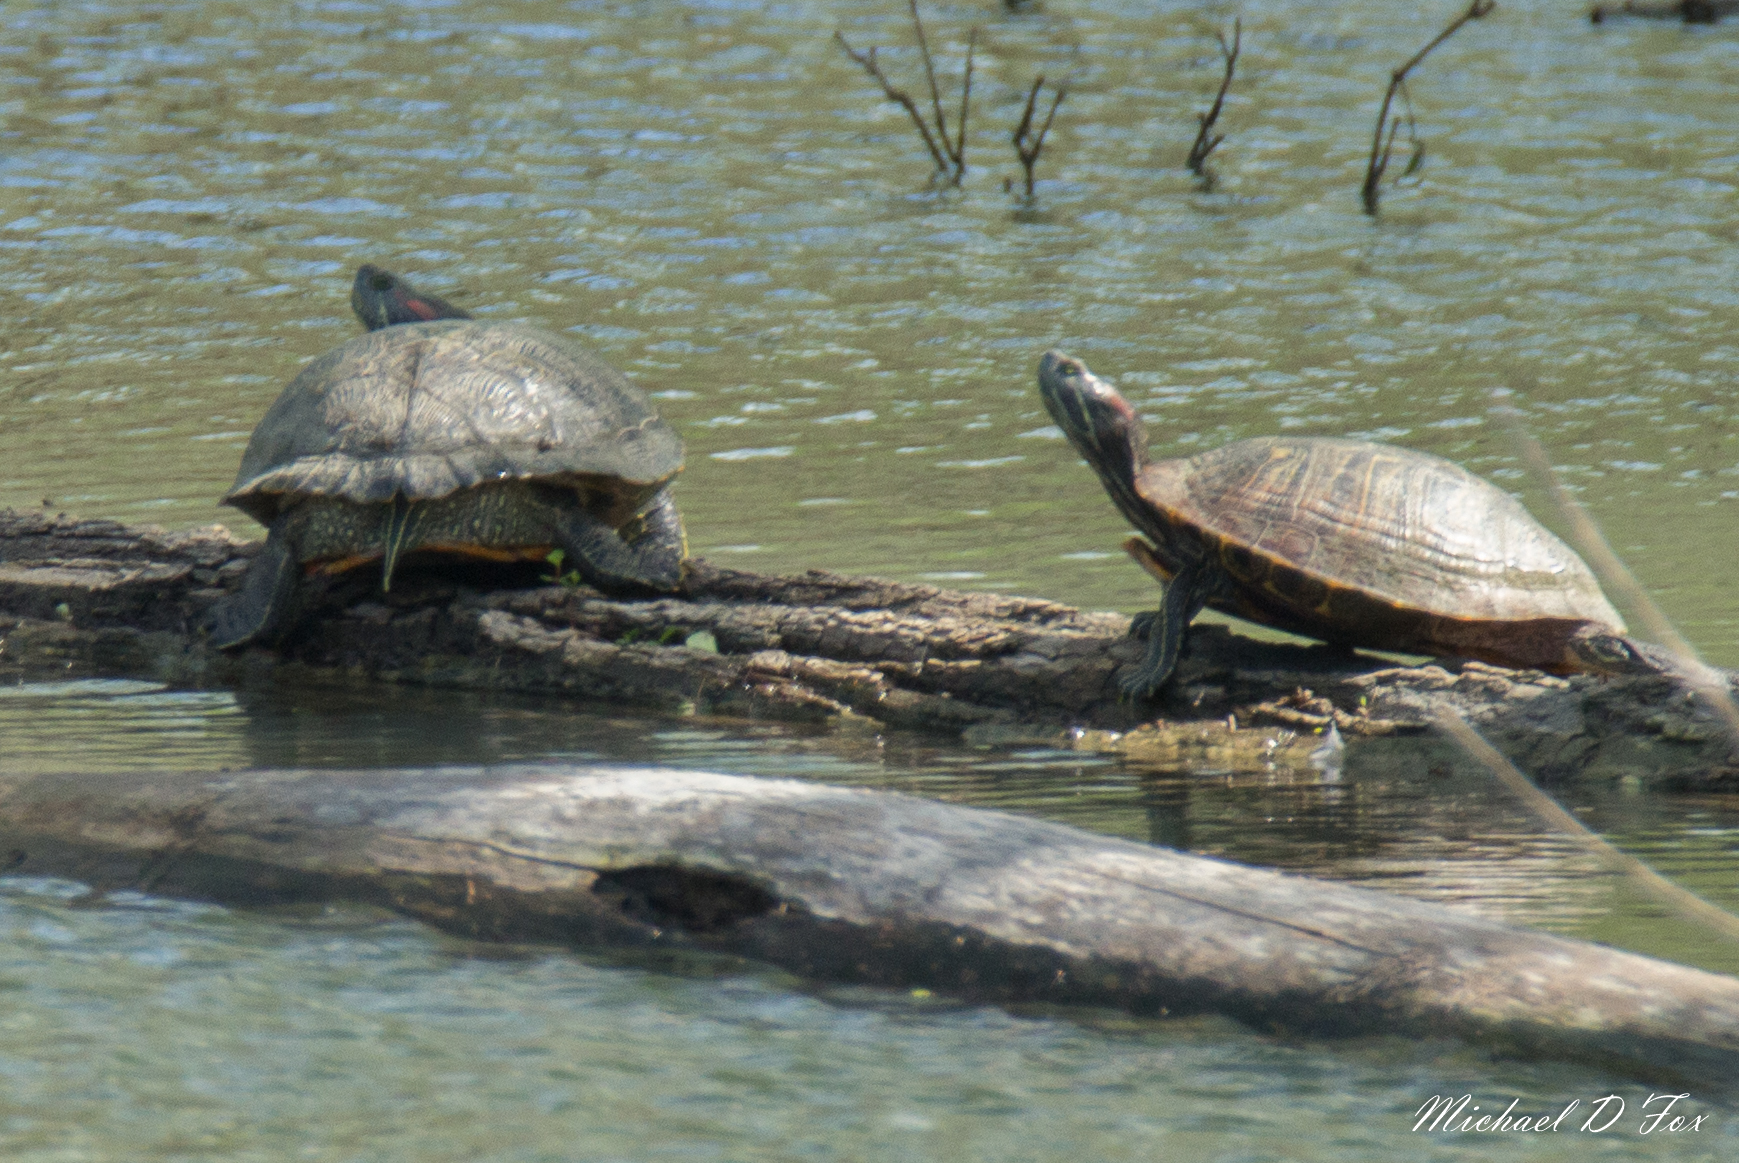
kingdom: Animalia
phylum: Chordata
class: Testudines
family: Emydidae
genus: Trachemys
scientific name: Trachemys scripta
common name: Slider
